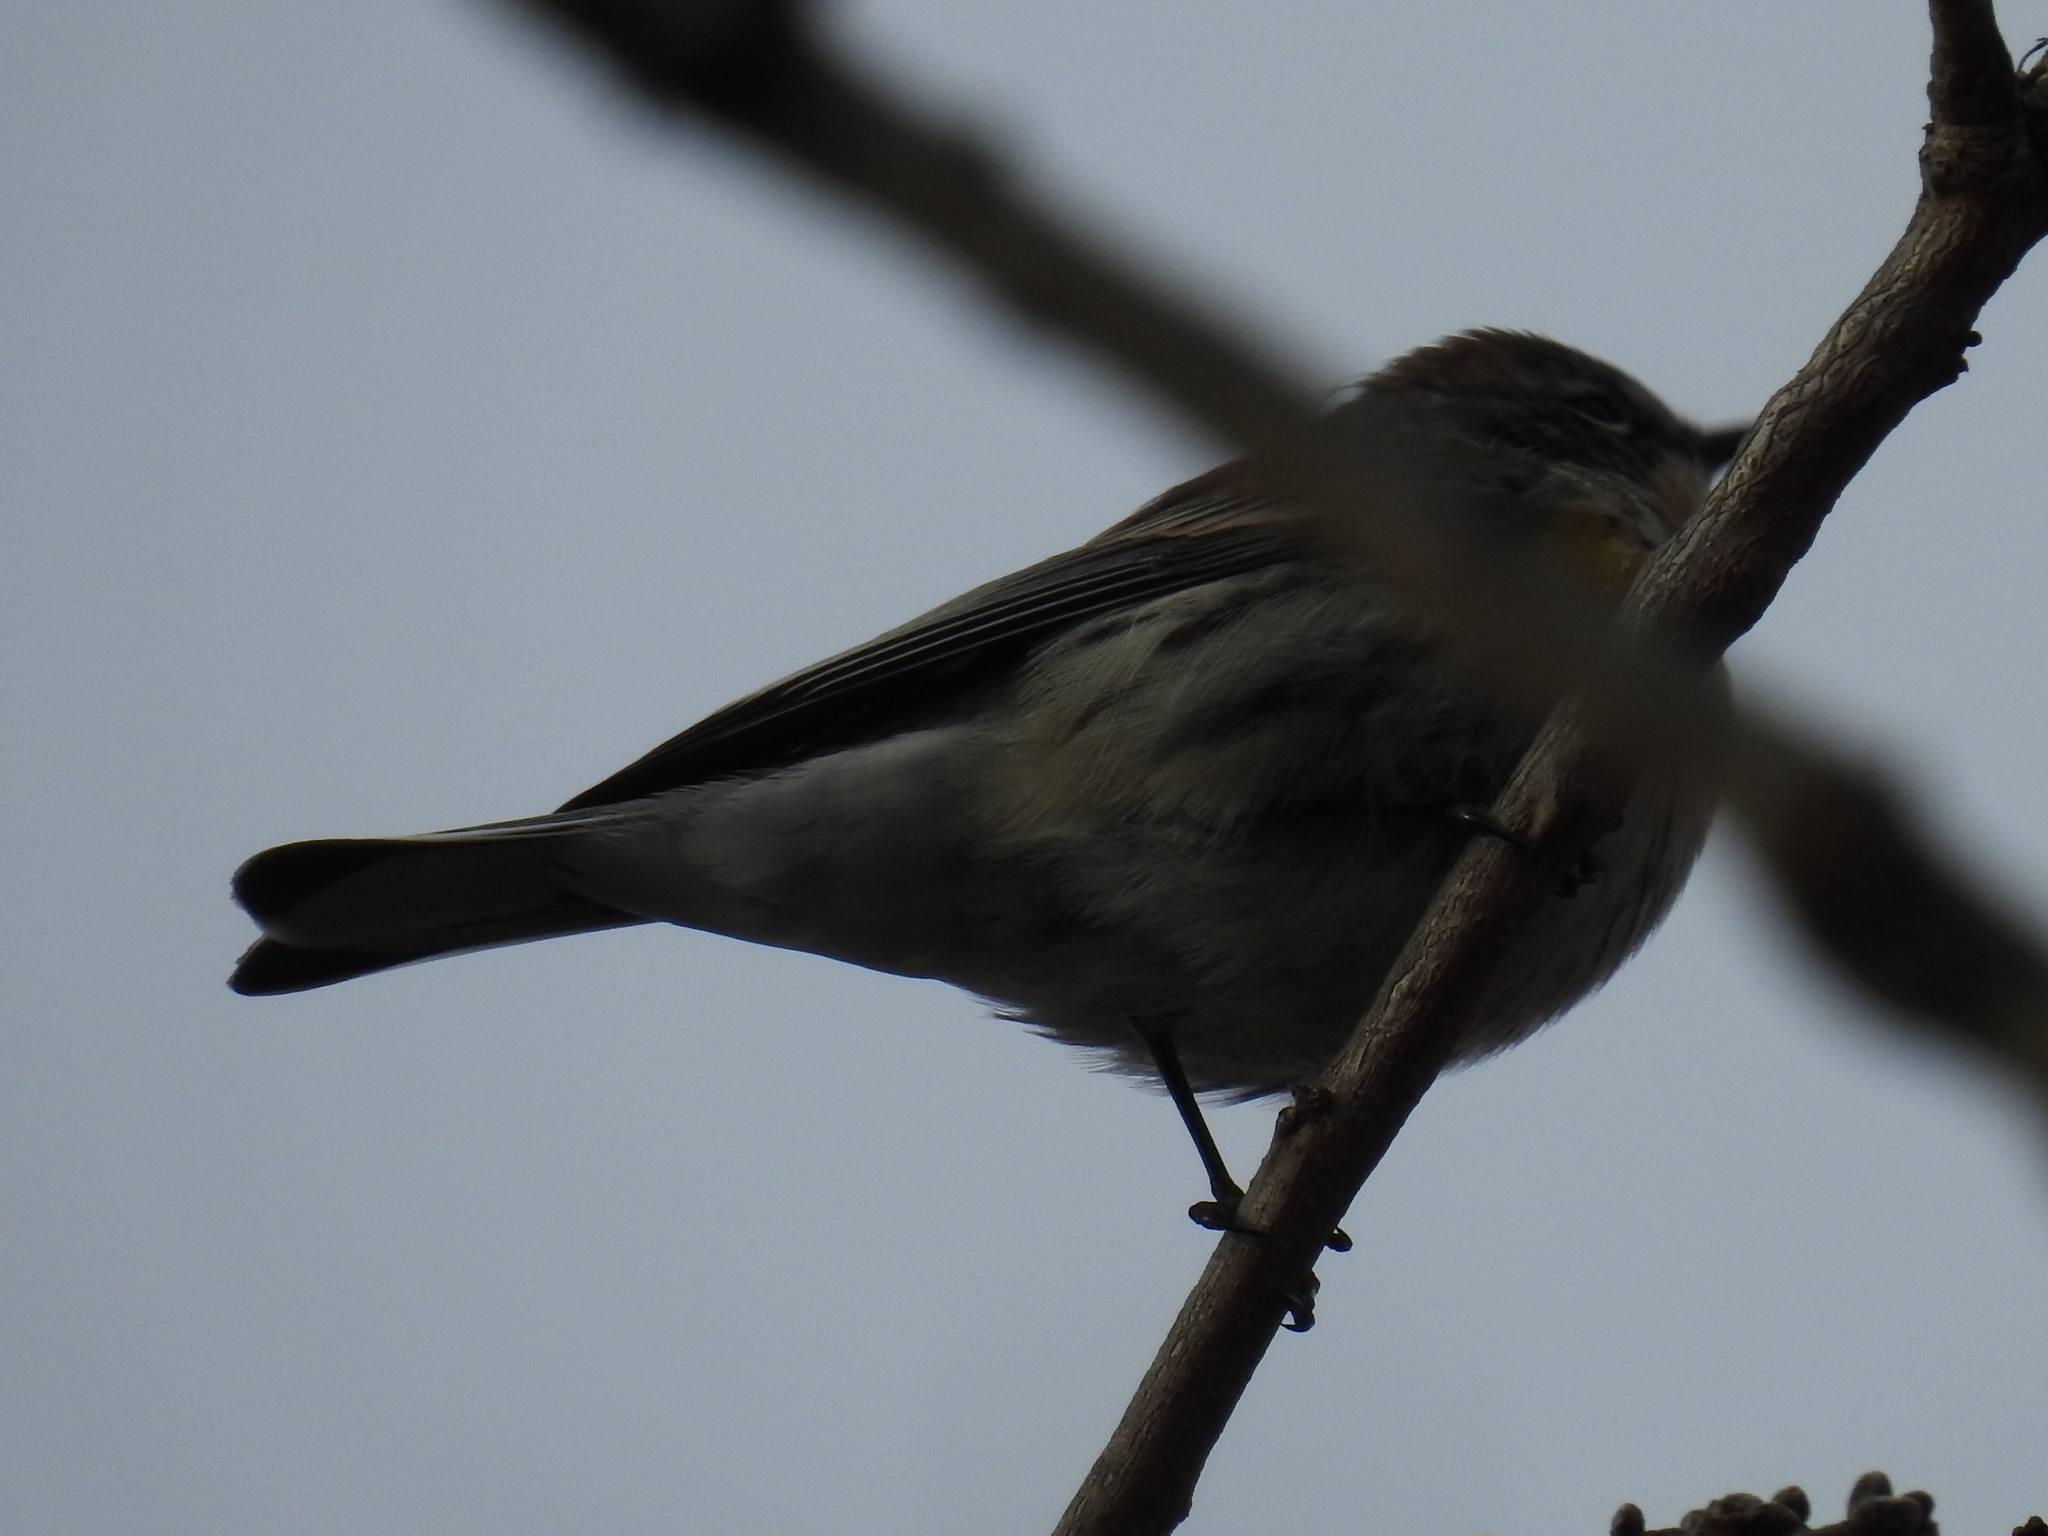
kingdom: Animalia
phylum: Chordata
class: Aves
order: Passeriformes
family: Parulidae
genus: Setophaga
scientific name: Setophaga coronata
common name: Myrtle warbler
